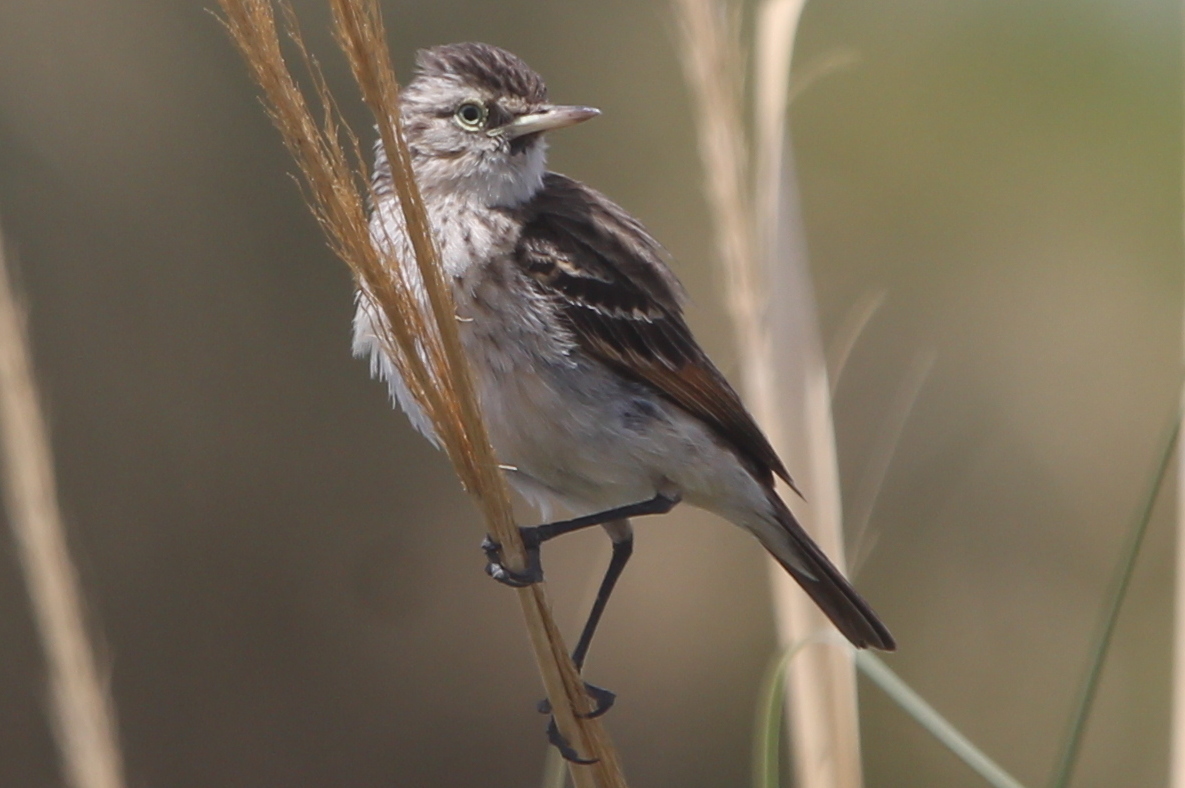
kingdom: Animalia
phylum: Chordata
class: Aves
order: Passeriformes
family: Tyrannidae
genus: Hymenops
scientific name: Hymenops perspicillatus
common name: Spectacled tyrant
